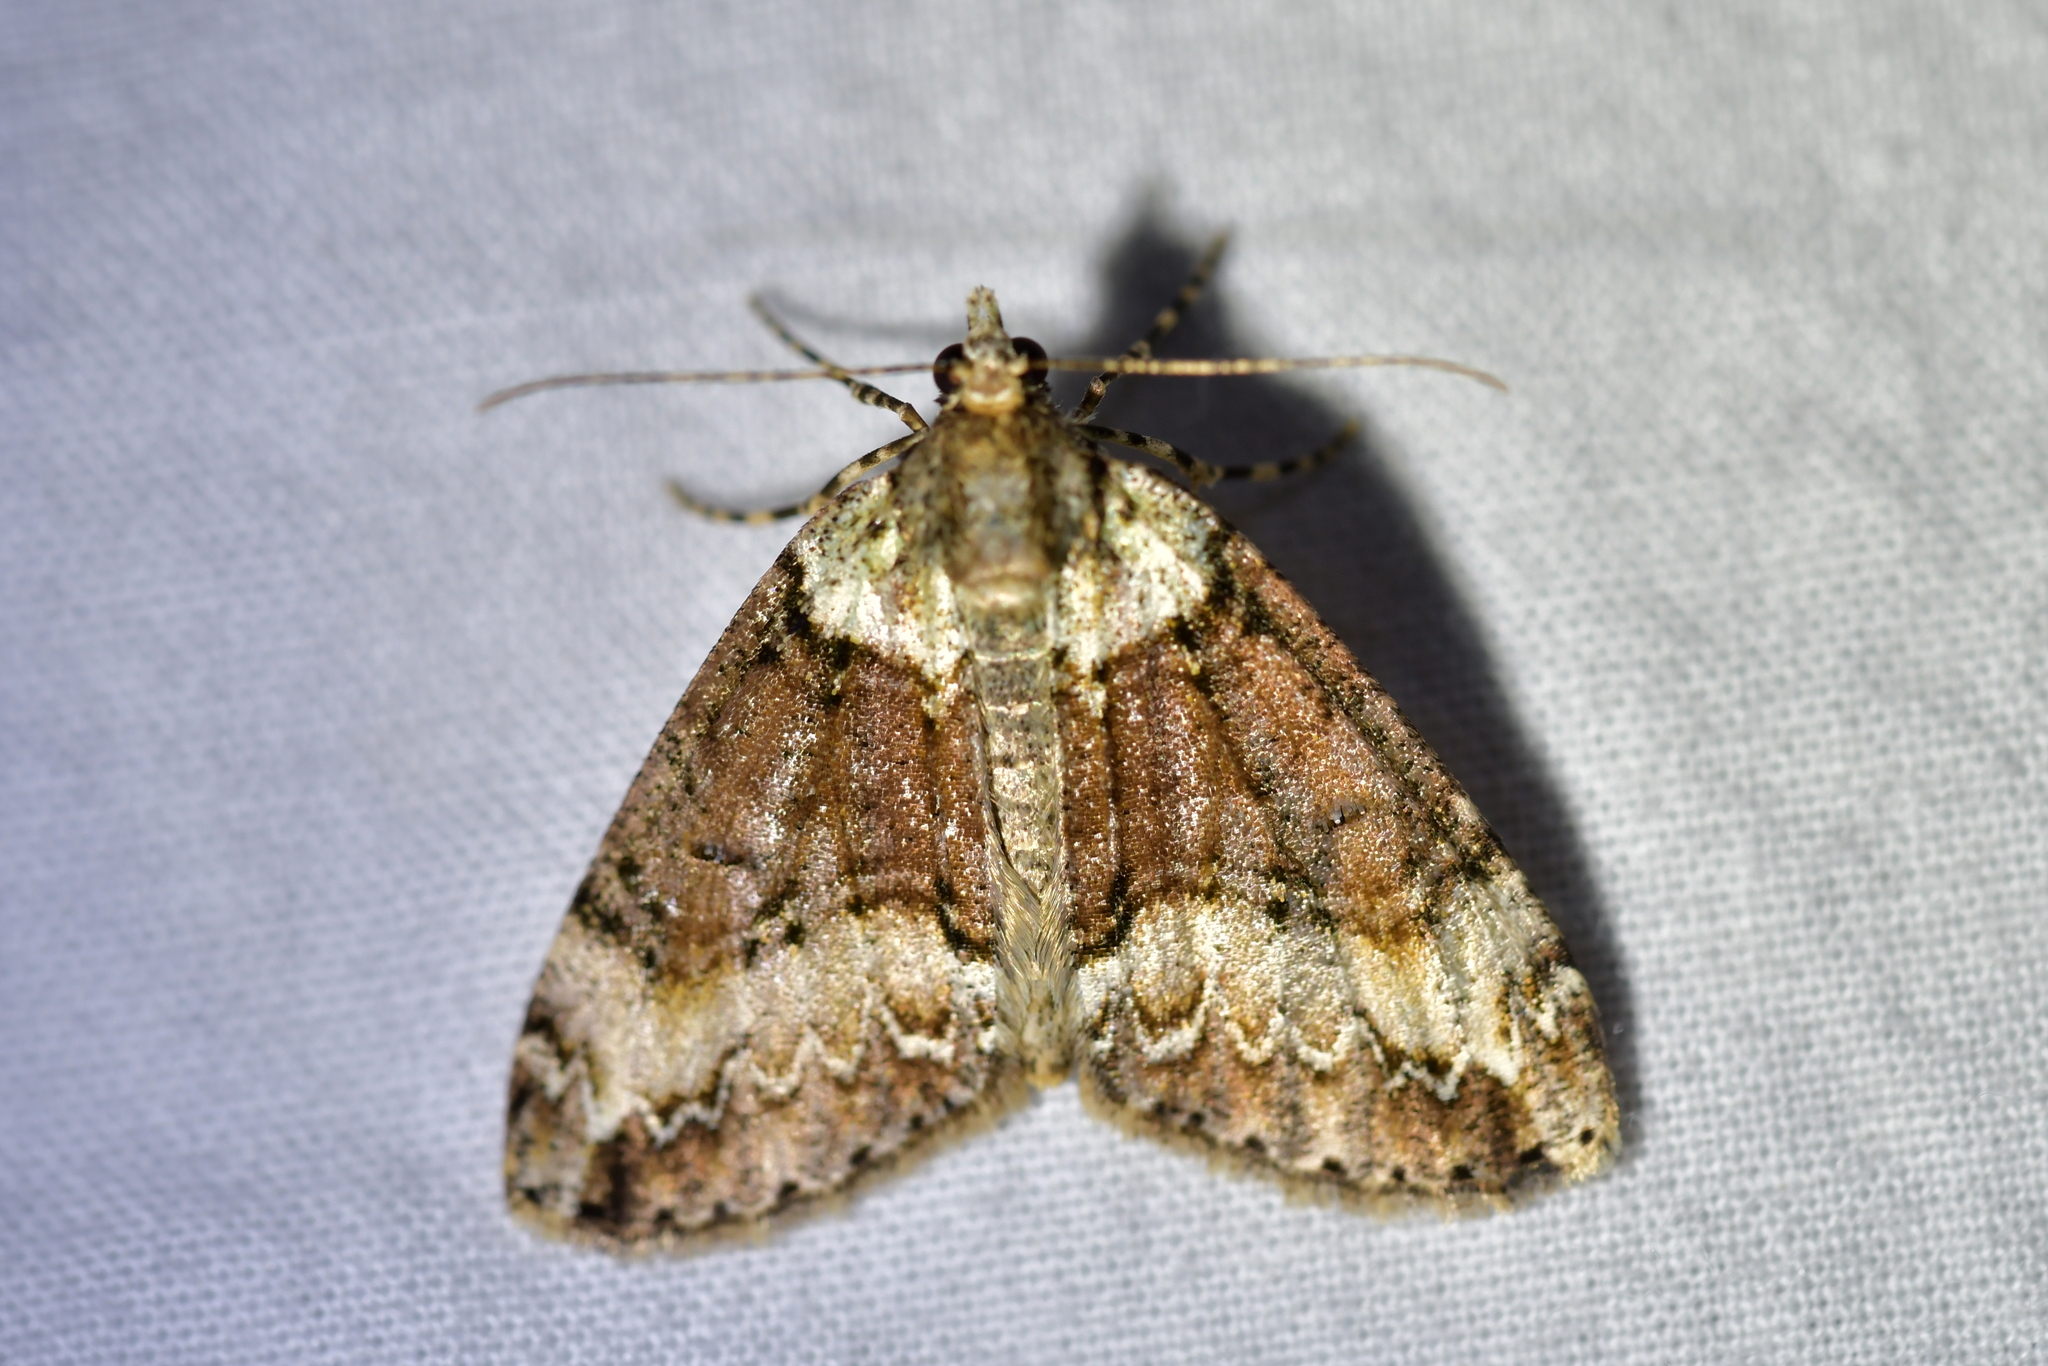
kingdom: Animalia
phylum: Arthropoda
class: Insecta
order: Lepidoptera
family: Geometridae
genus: Pseudocoremia
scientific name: Pseudocoremia suavis
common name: Common forest looper
